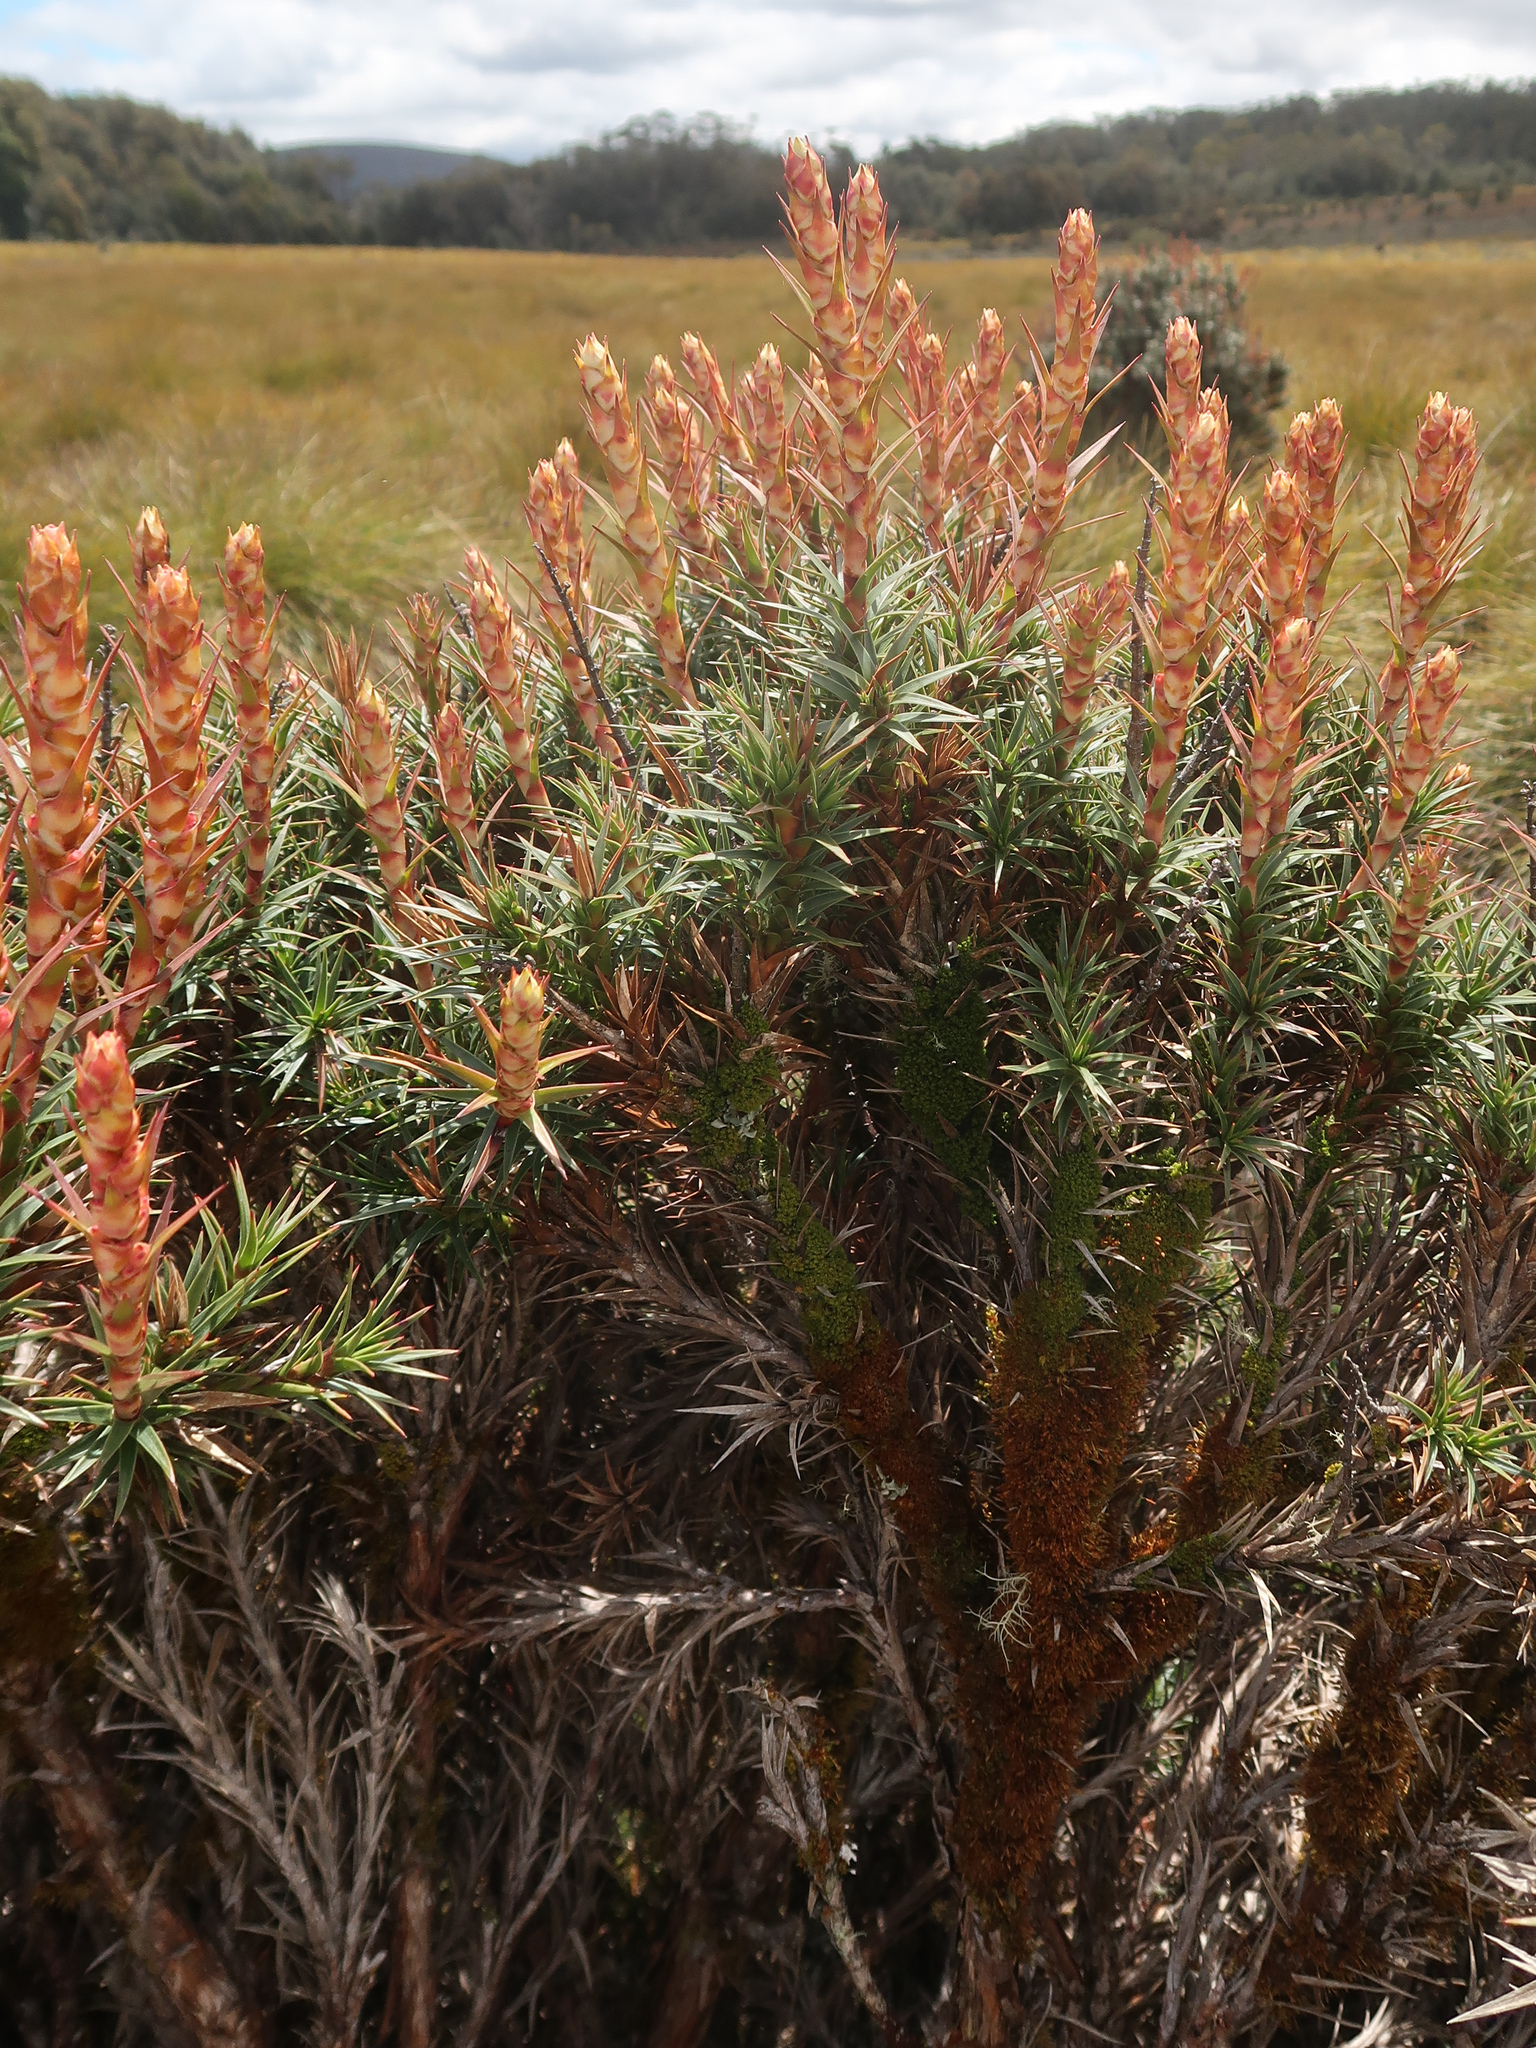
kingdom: Plantae
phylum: Tracheophyta
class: Magnoliopsida
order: Ericales
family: Ericaceae
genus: Dracophyllum
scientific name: Dracophyllum persistentifolium
